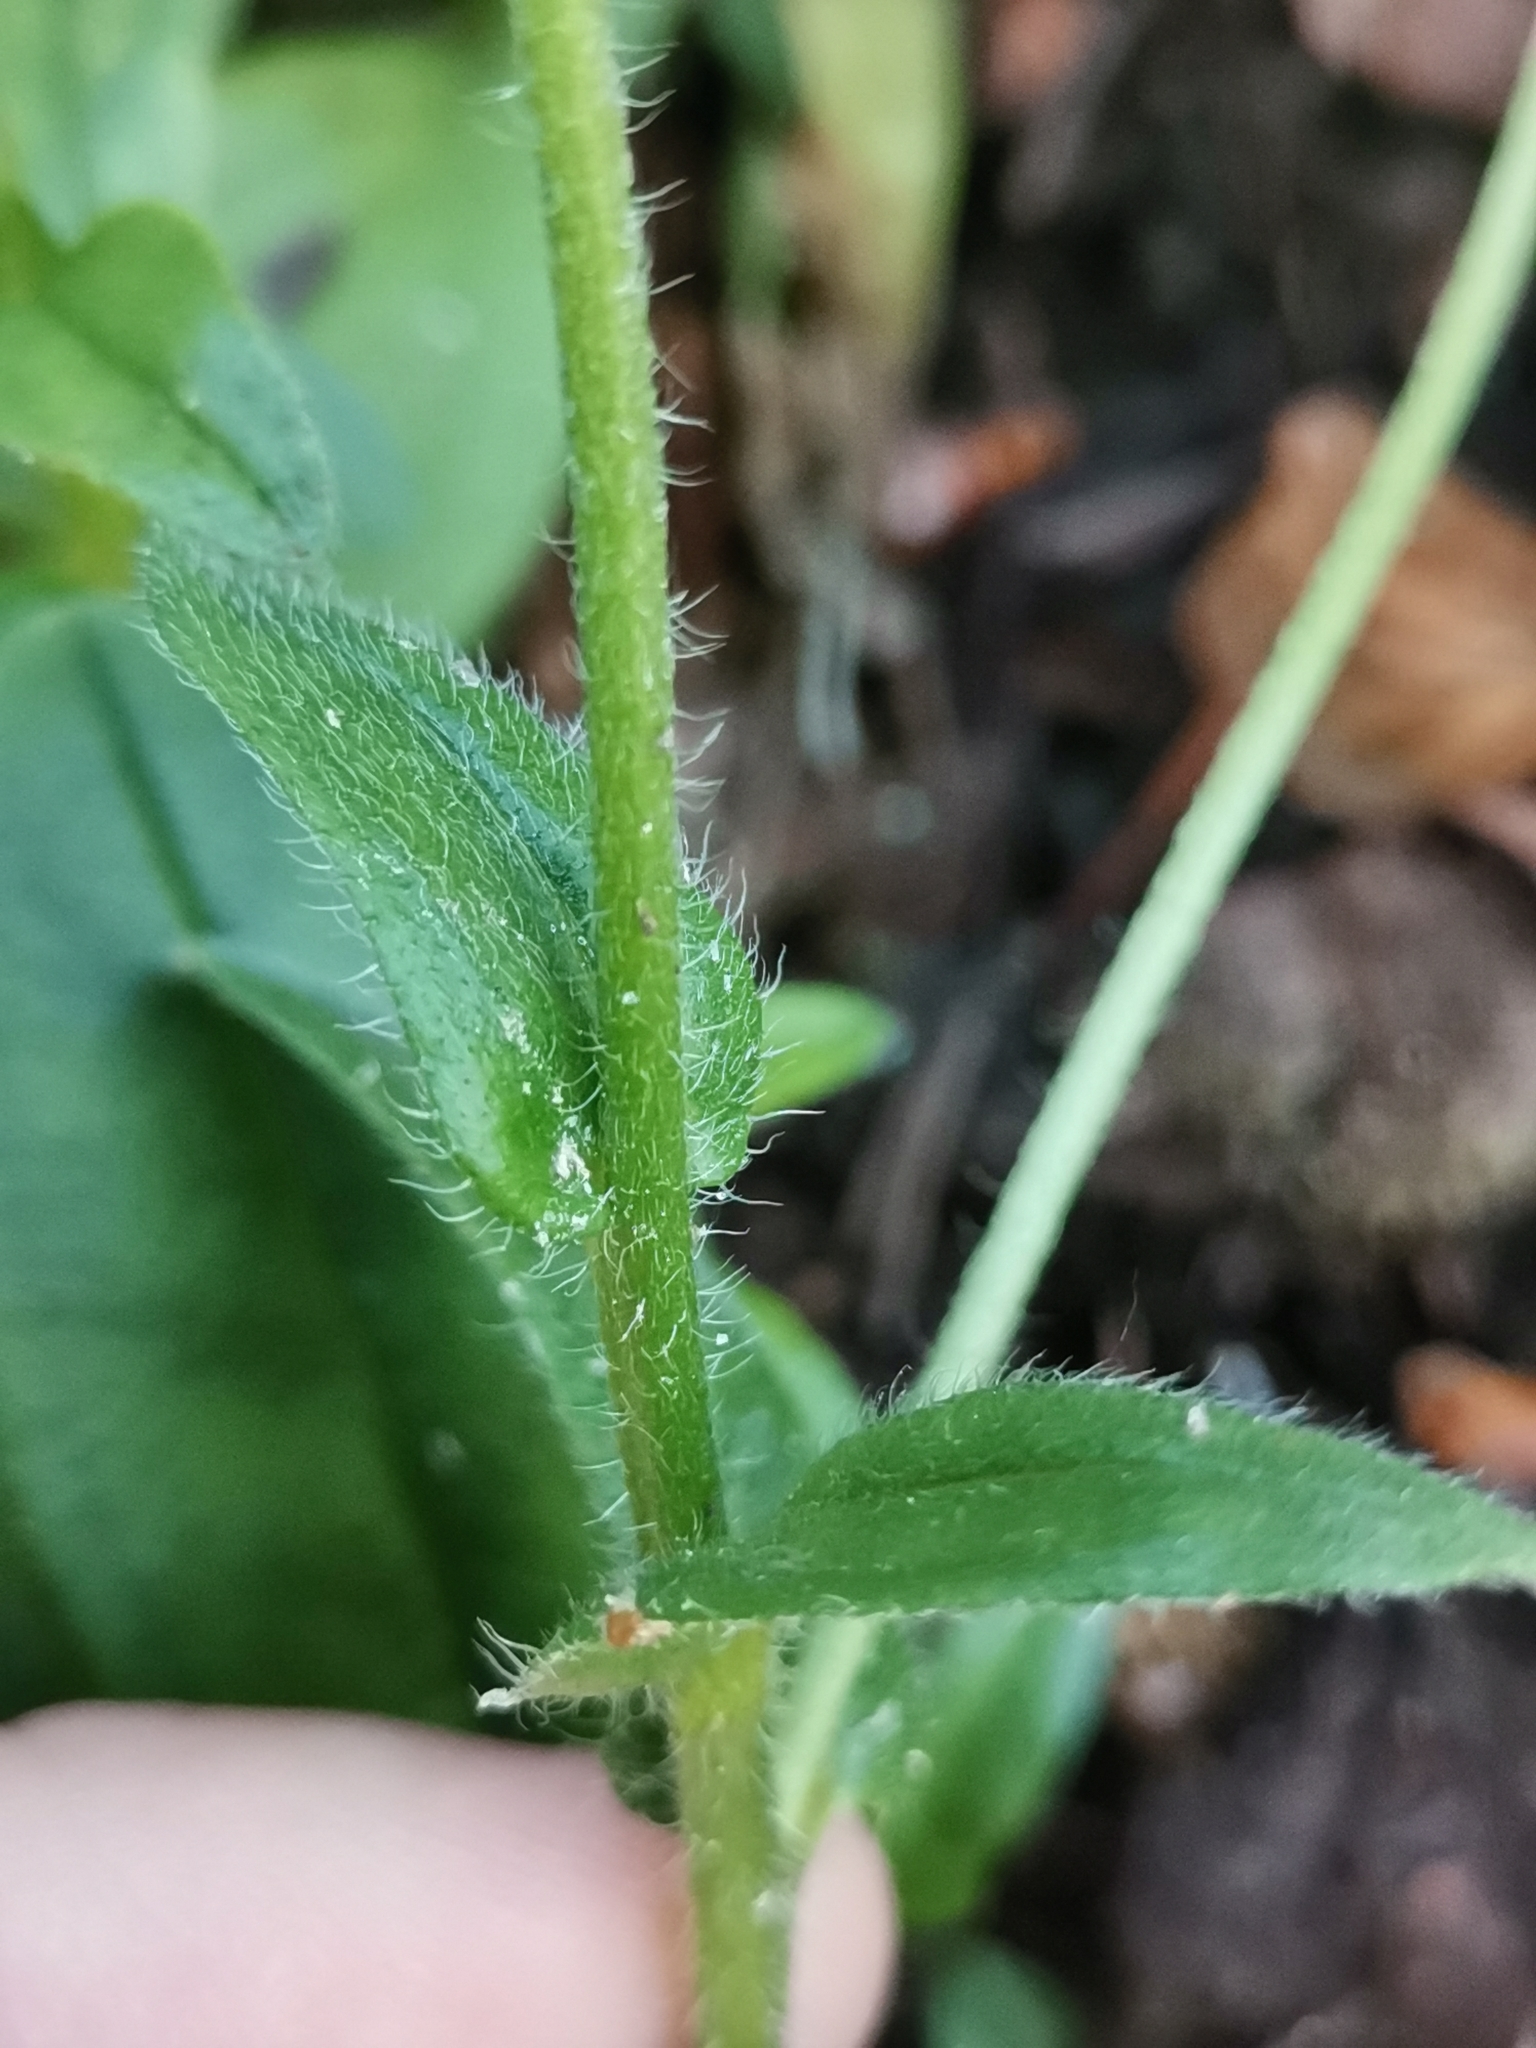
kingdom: Plantae
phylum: Tracheophyta
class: Magnoliopsida
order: Boraginales
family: Boraginaceae
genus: Myosotis
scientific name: Myosotis alpestris
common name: Alpine forget-me-not
